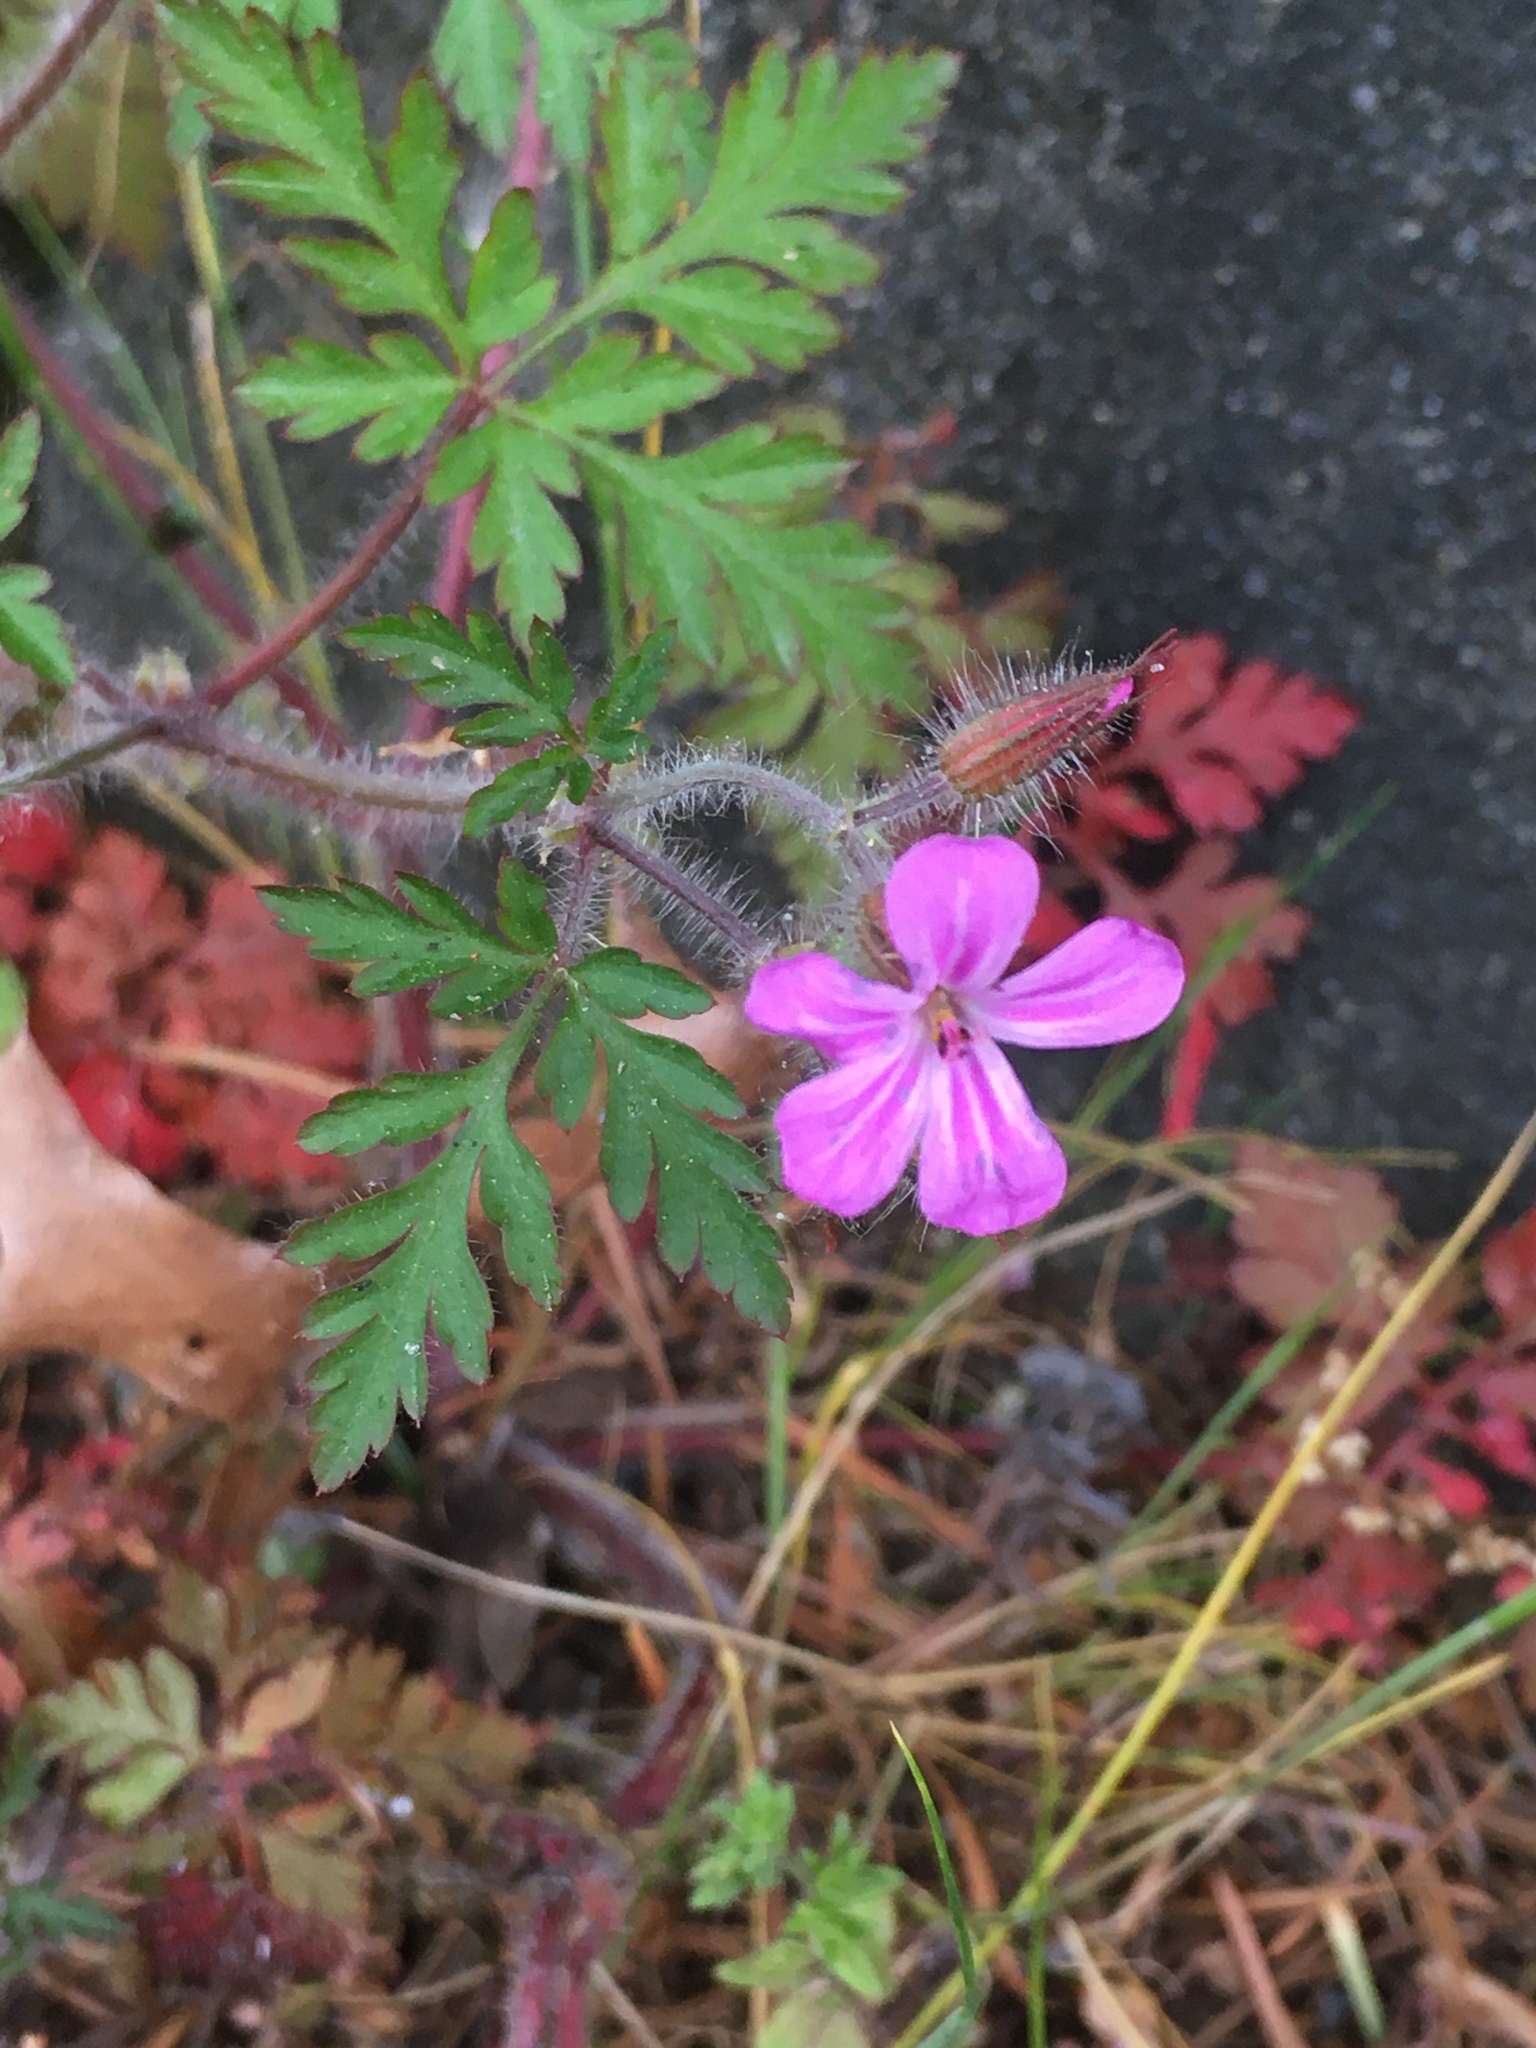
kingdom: Plantae
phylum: Tracheophyta
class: Magnoliopsida
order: Geraniales
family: Geraniaceae
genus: Geranium
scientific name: Geranium robertianum
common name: Herb-robert
